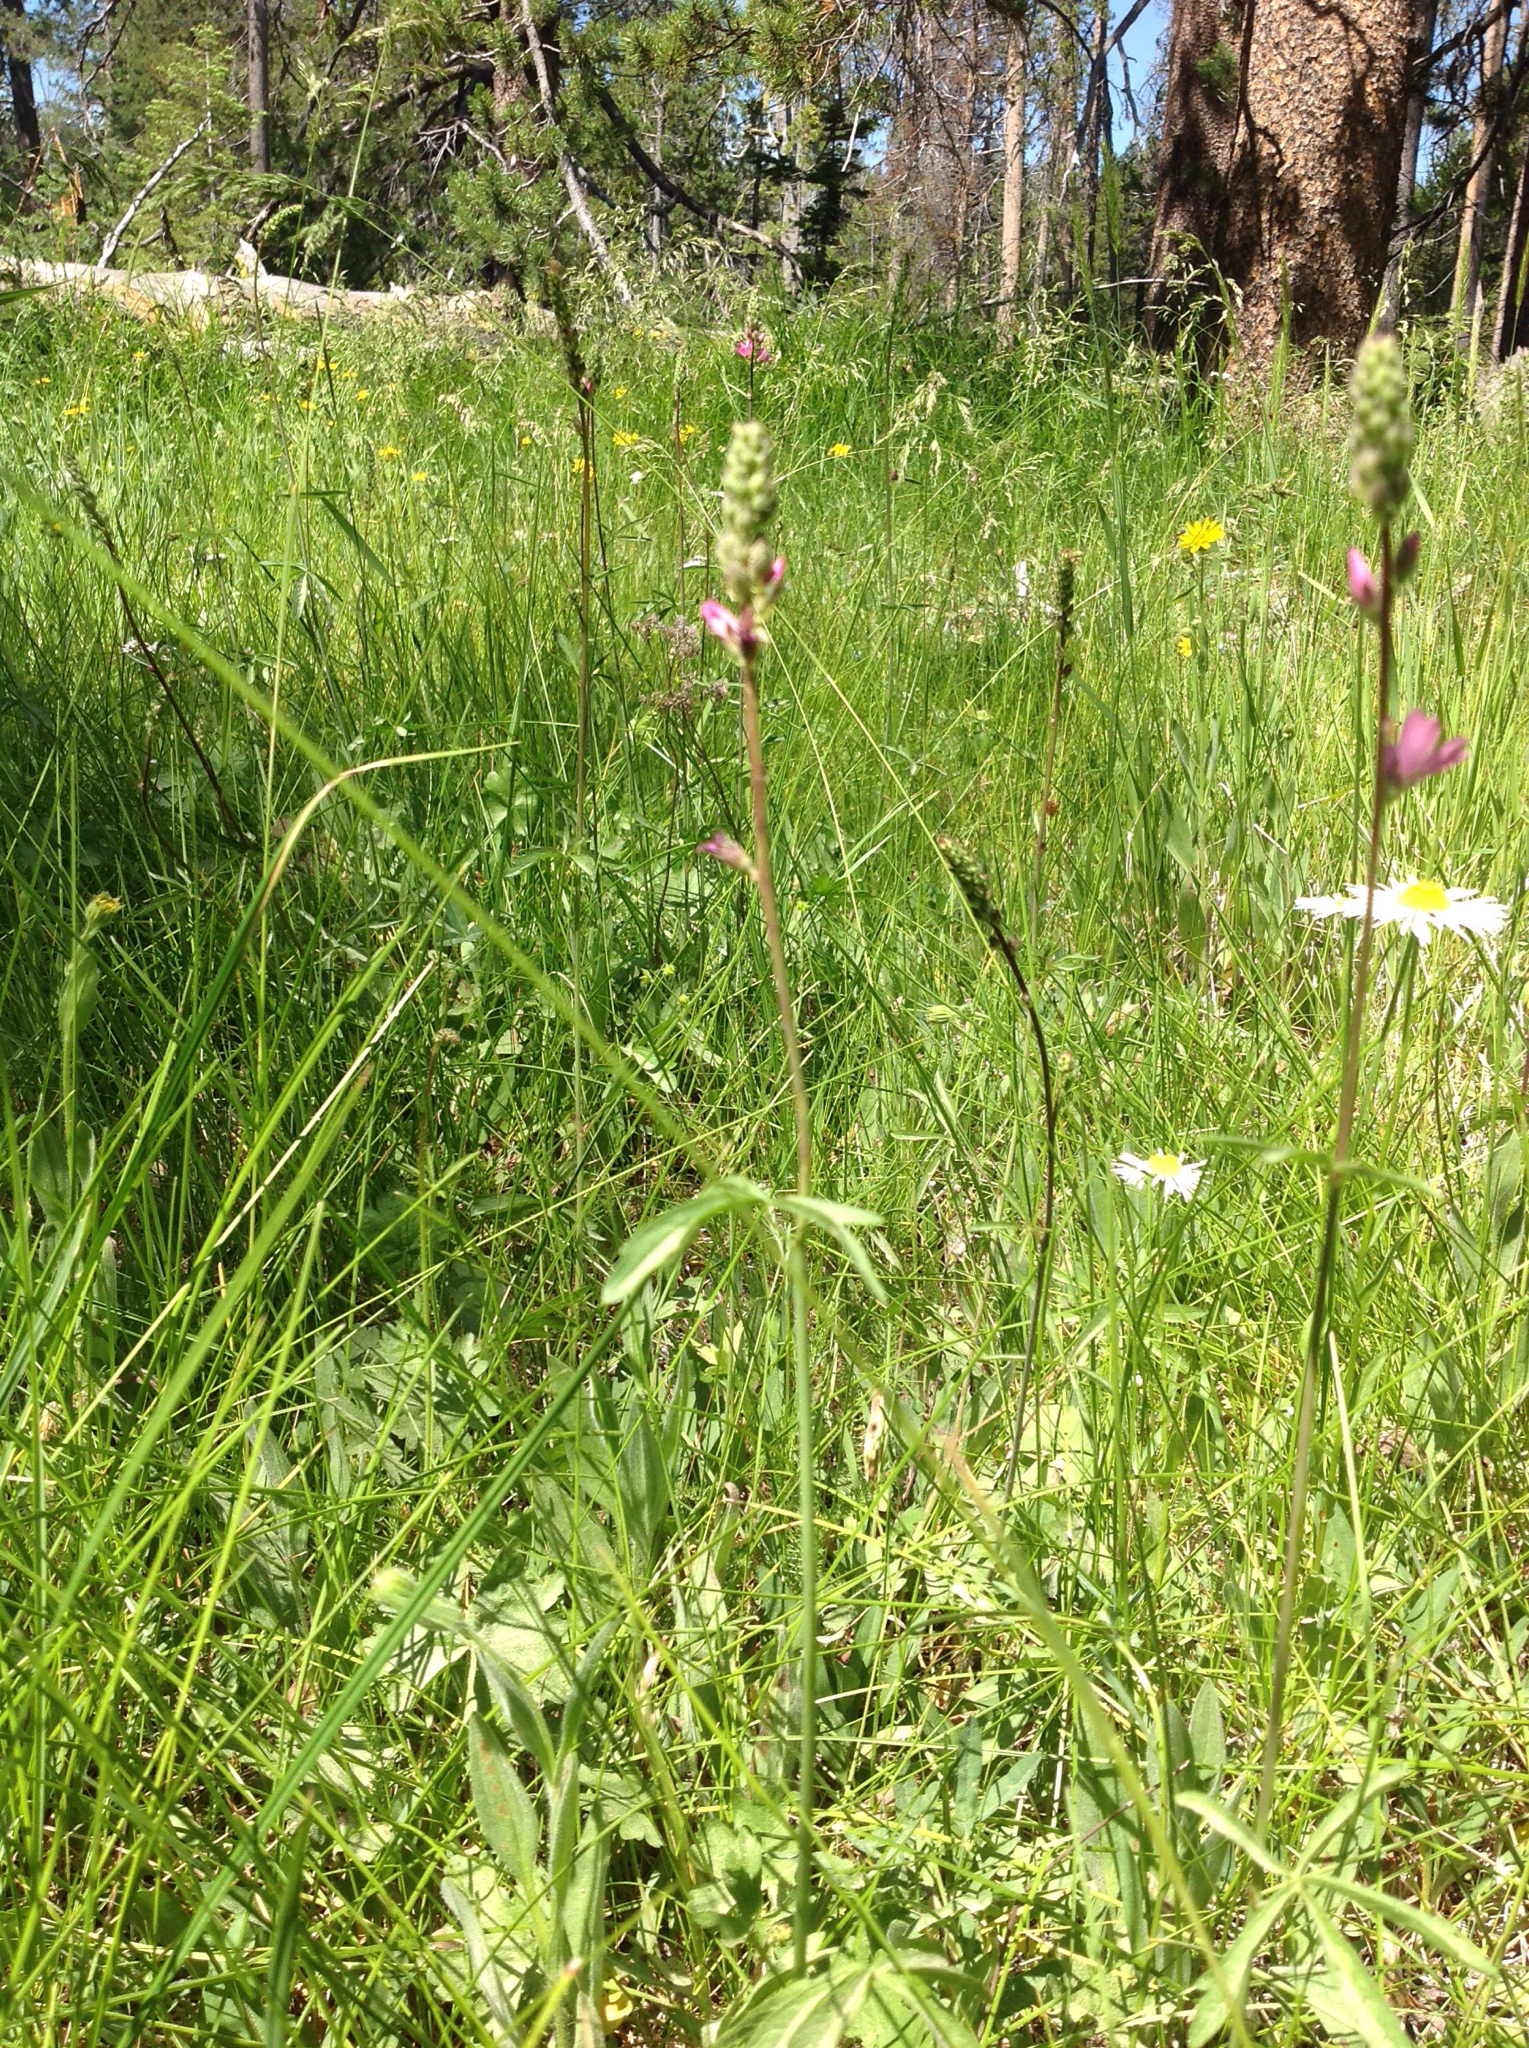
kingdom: Plantae
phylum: Tracheophyta
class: Magnoliopsida
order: Malvales
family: Malvaceae
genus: Sidalcea
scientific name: Sidalcea oregana
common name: Oregon checker-mallow
